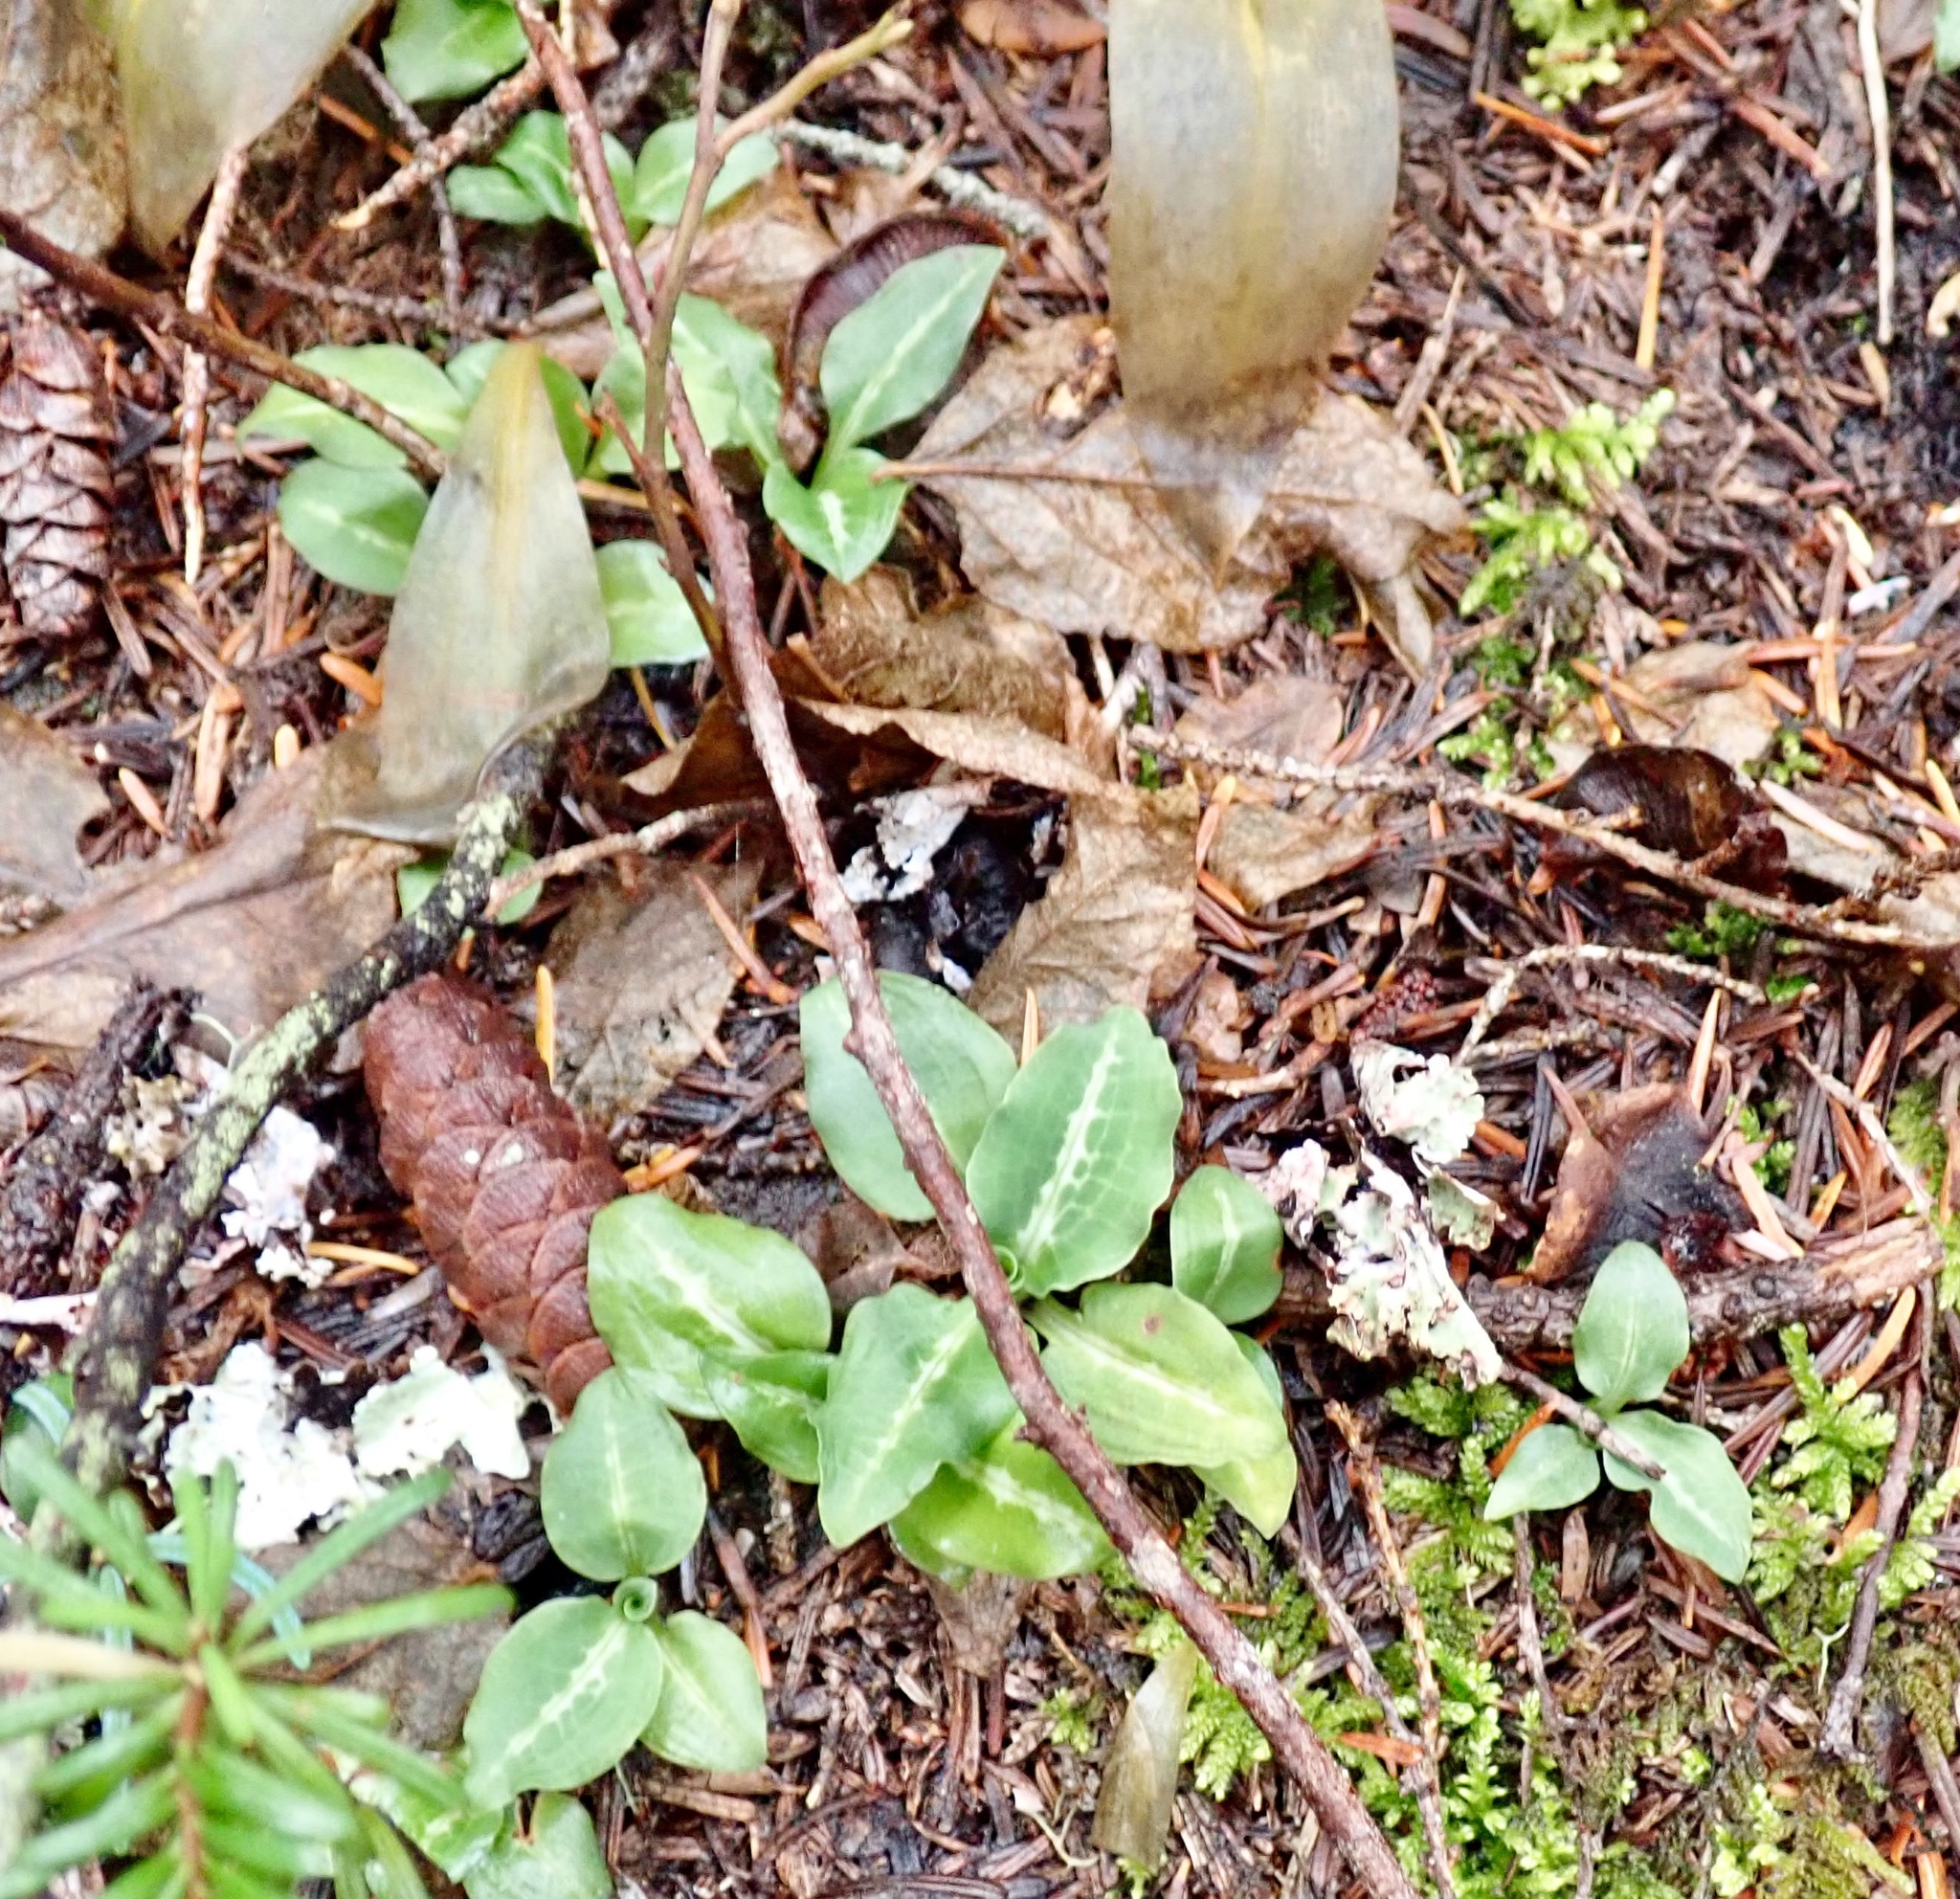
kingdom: Plantae
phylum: Tracheophyta
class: Liliopsida
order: Asparagales
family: Orchidaceae
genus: Goodyera
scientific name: Goodyera oblongifolia
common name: Giant rattlesnake-plantain
